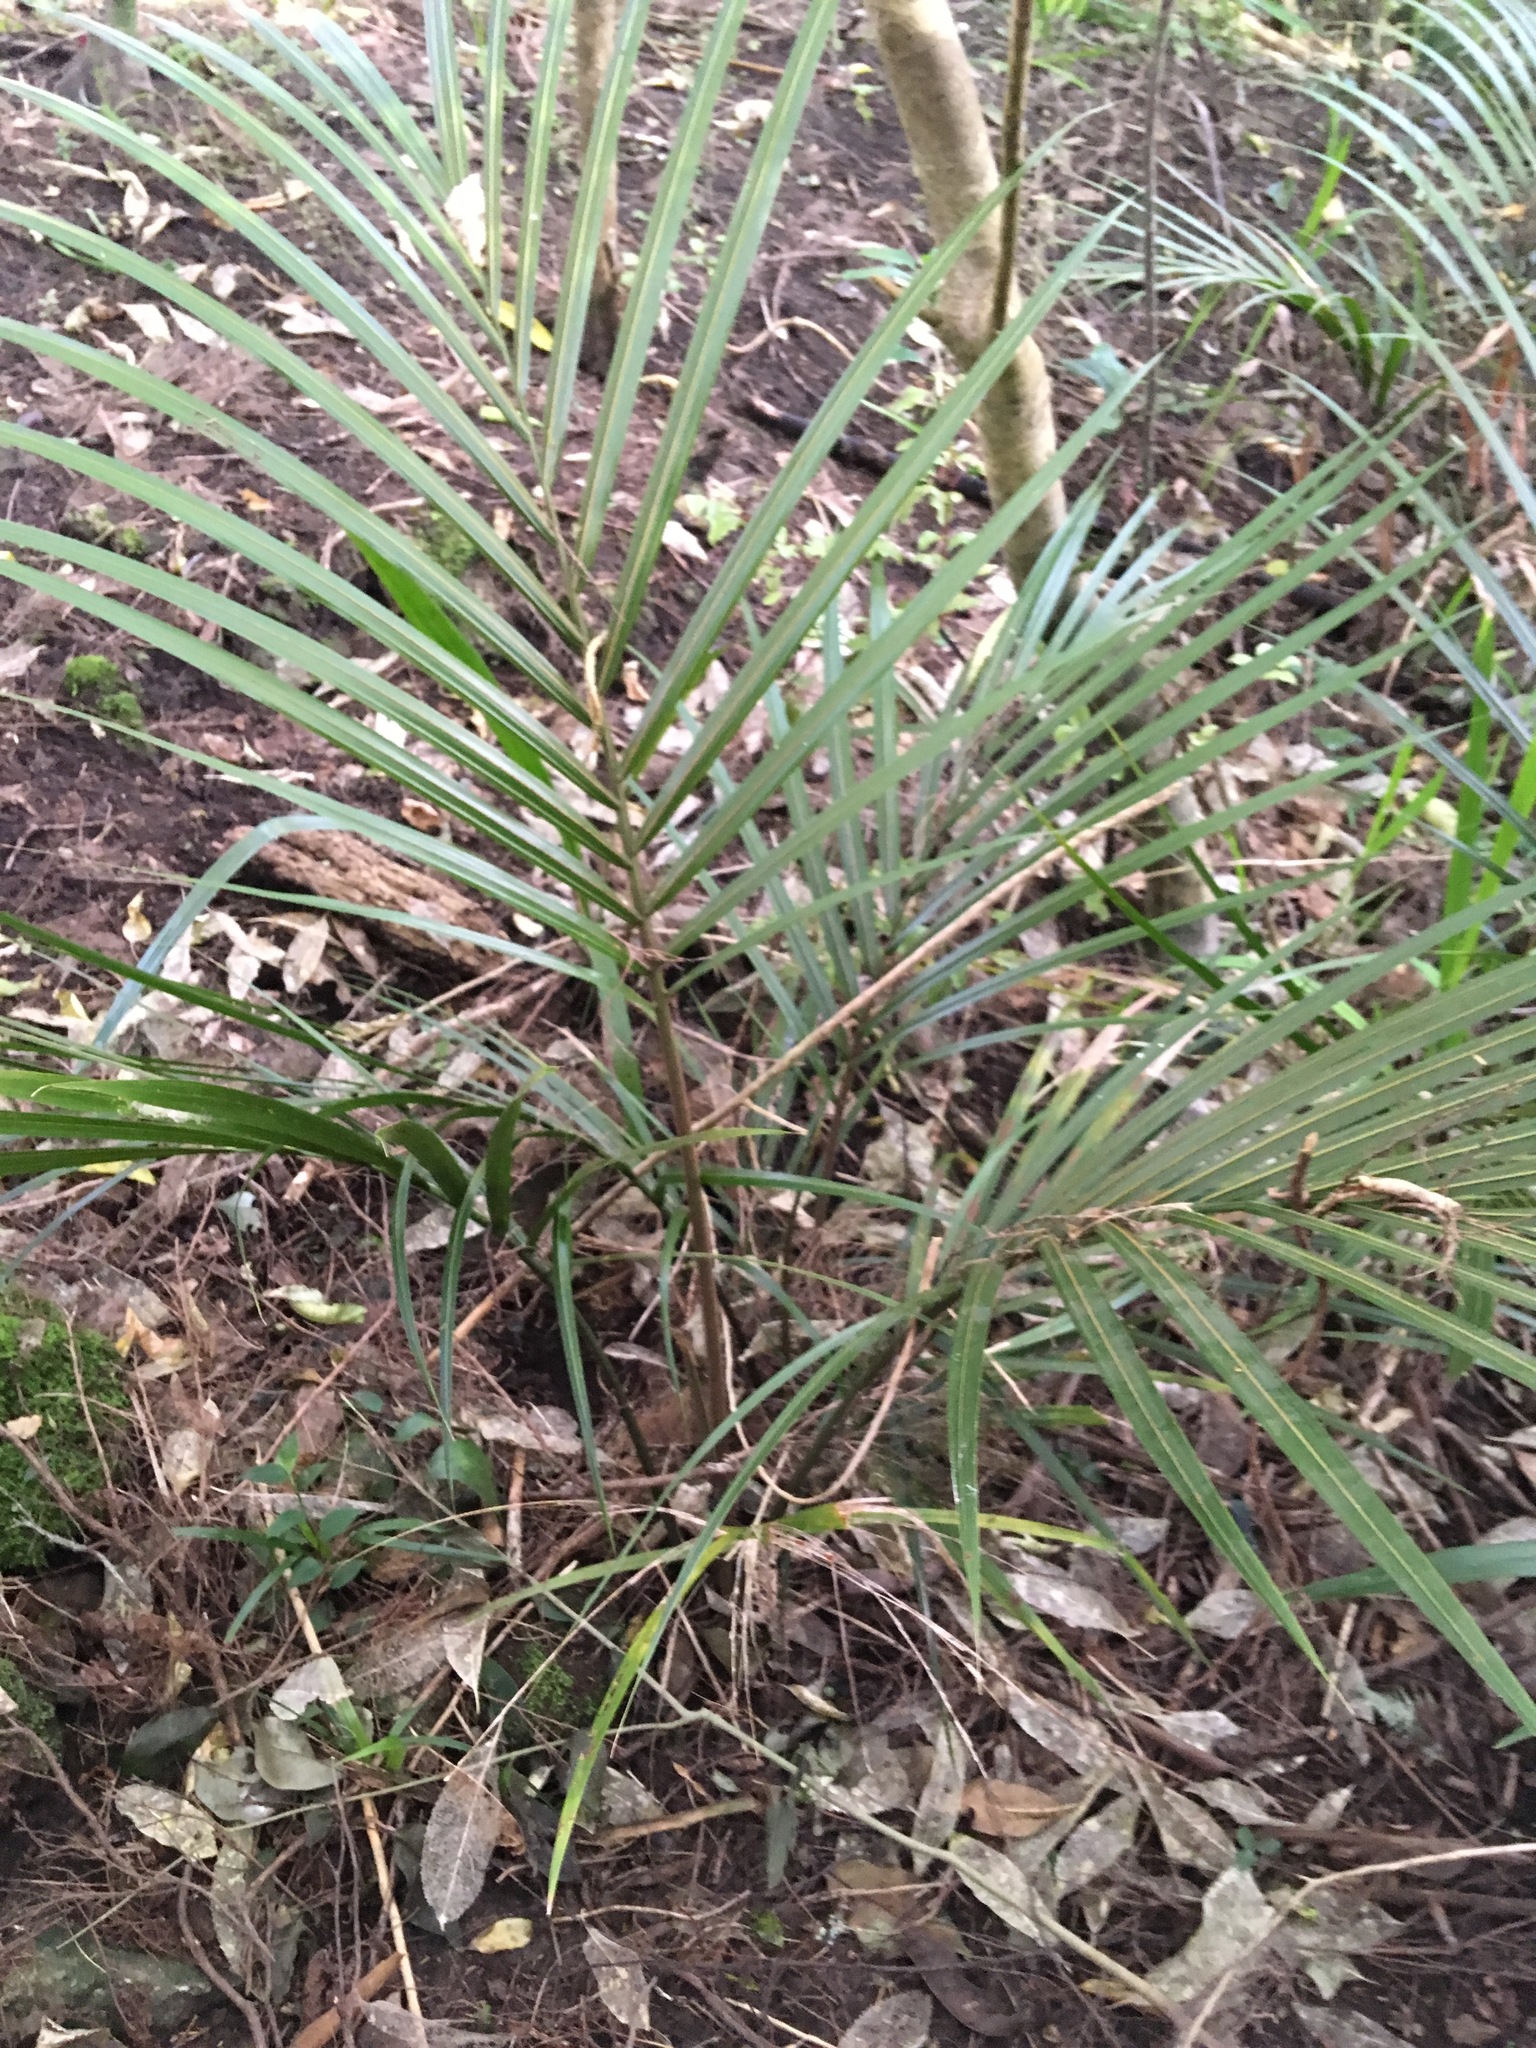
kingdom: Plantae
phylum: Tracheophyta
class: Liliopsida
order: Arecales
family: Arecaceae
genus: Rhopalostylis
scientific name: Rhopalostylis sapida
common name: Feather-duster palm
